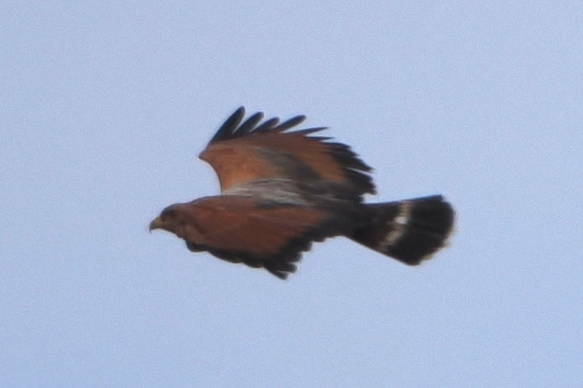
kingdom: Animalia
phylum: Chordata
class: Aves
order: Accipitriformes
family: Accipitridae
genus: Buteogallus
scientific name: Buteogallus meridionalis
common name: Savanna hawk
